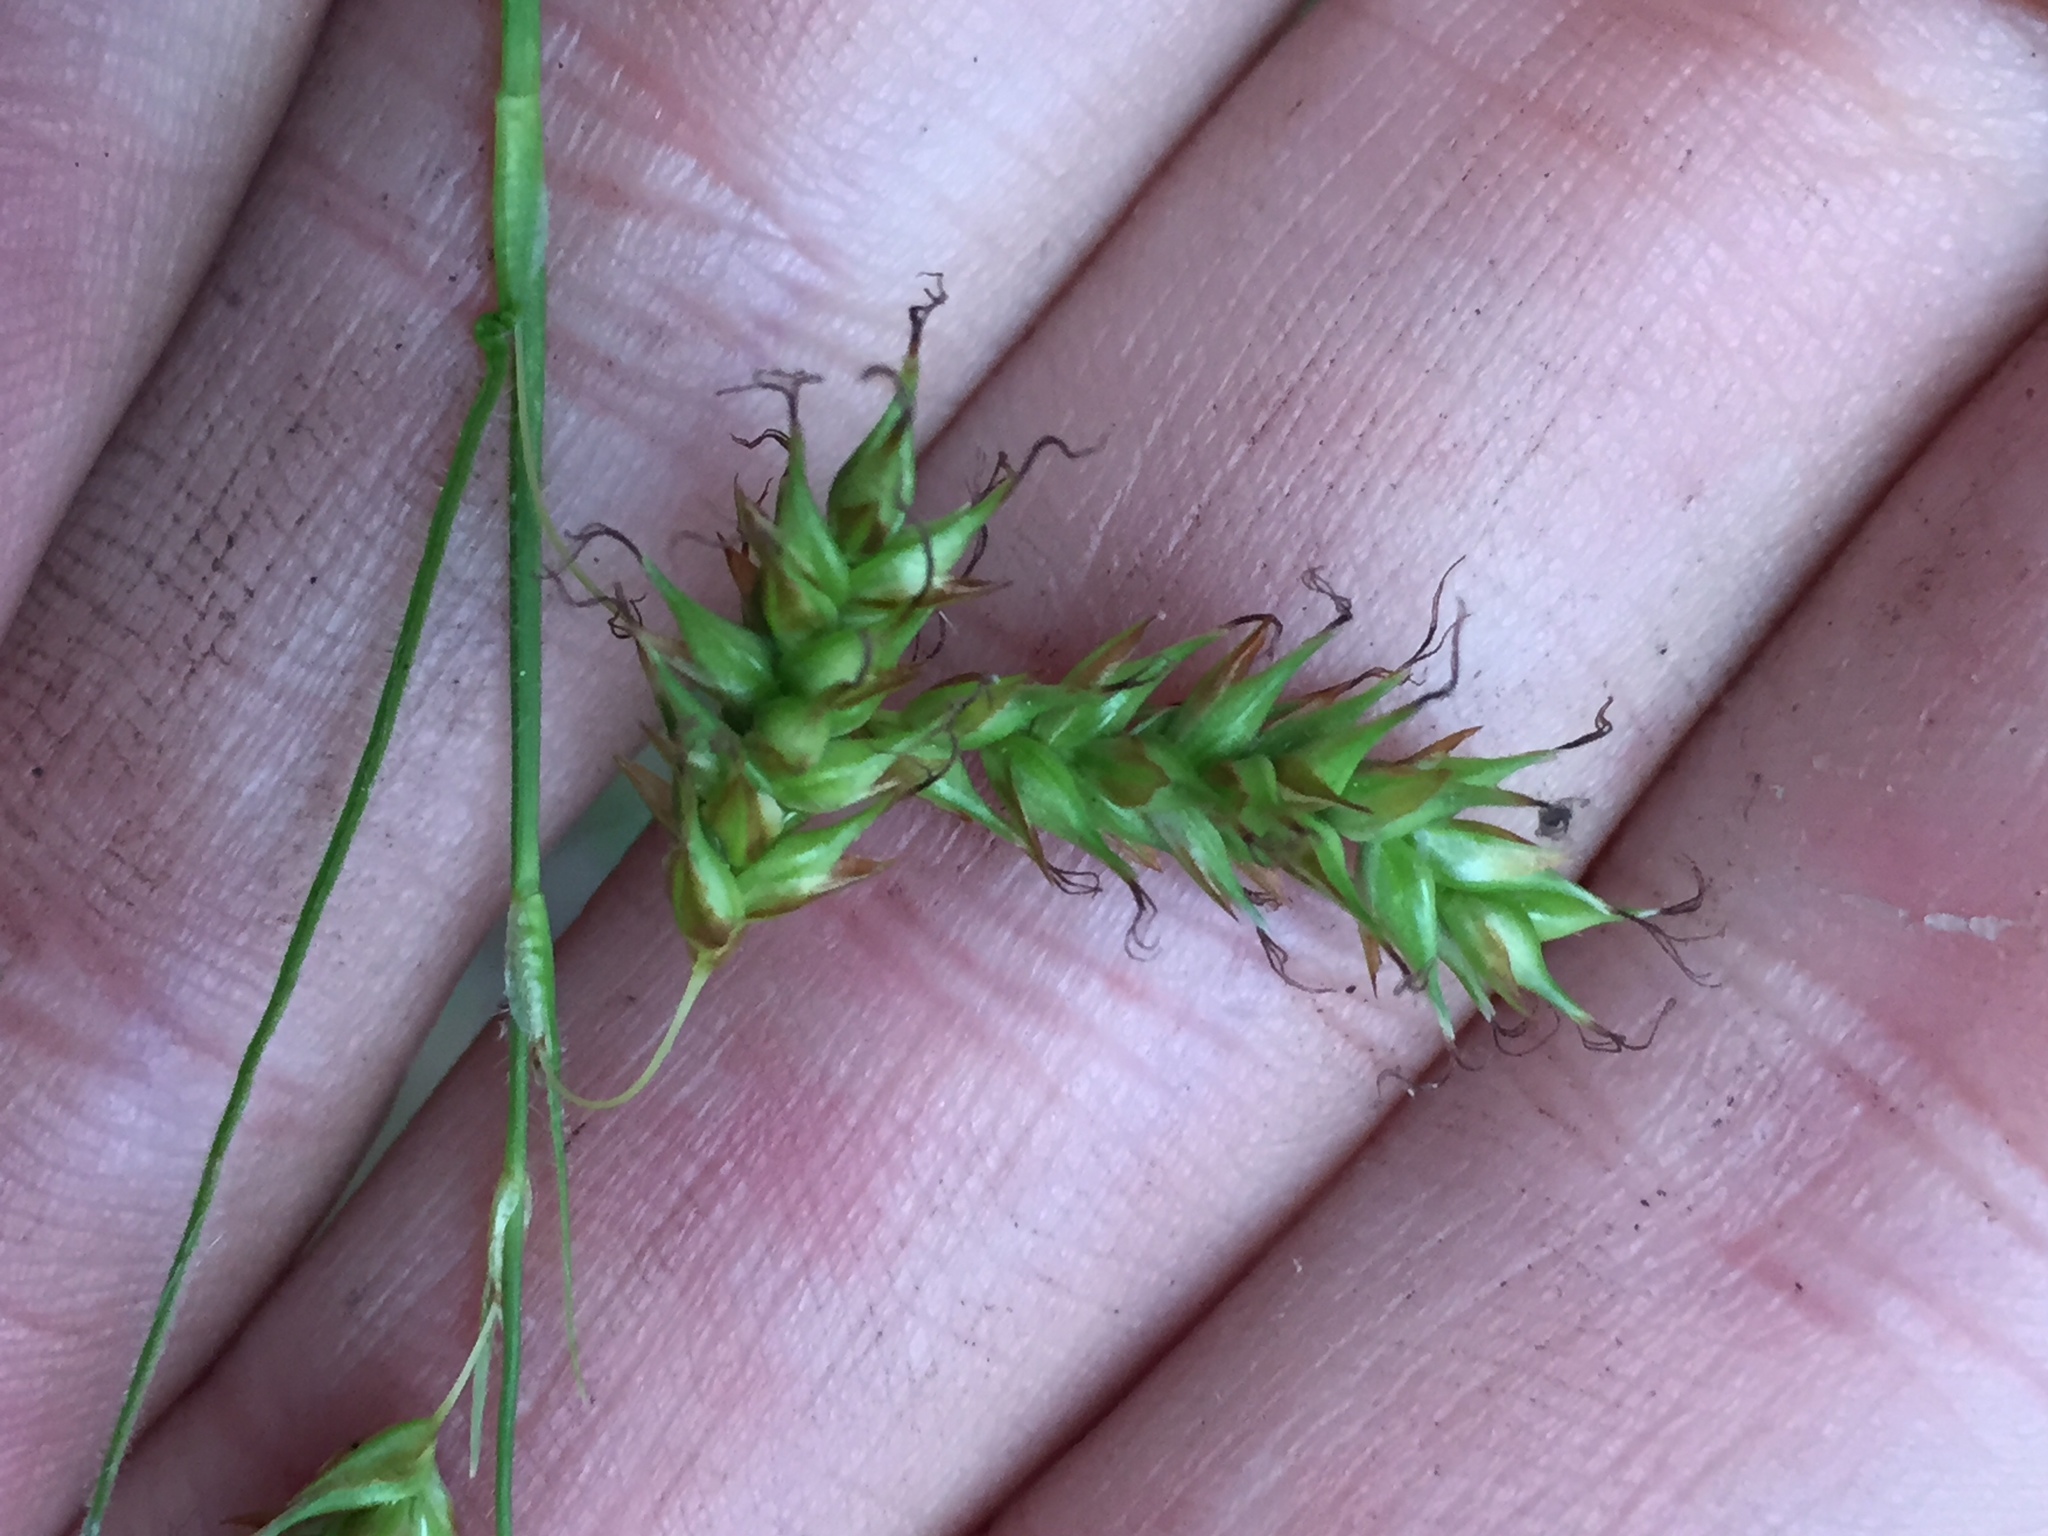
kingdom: Plantae
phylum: Tracheophyta
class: Liliopsida
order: Poales
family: Cyperaceae
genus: Carex
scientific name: Carex castanea
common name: Chestnut sedge
